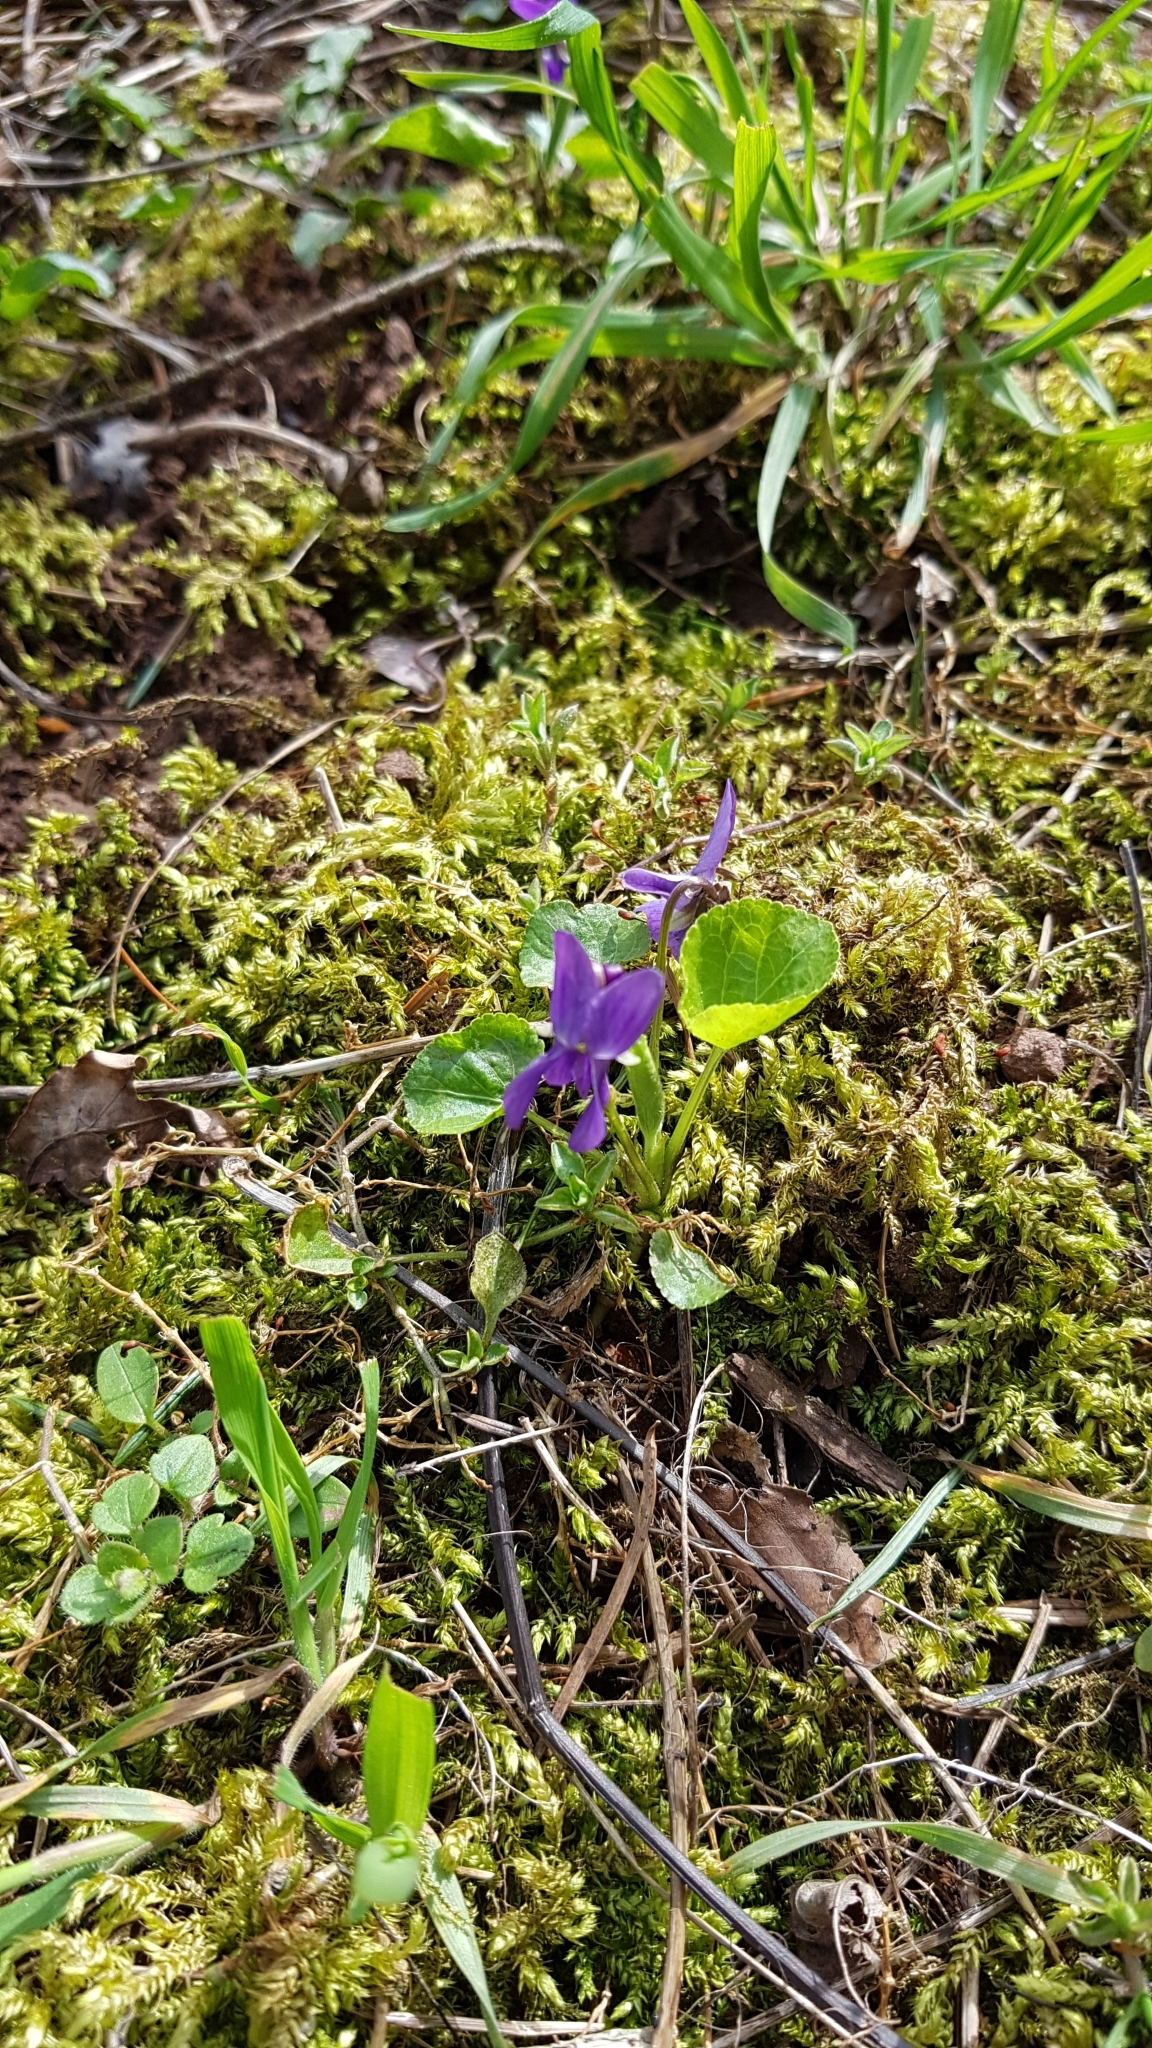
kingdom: Plantae
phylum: Tracheophyta
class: Magnoliopsida
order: Malpighiales
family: Violaceae
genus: Viola
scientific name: Viola odorata
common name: Sweet violet
